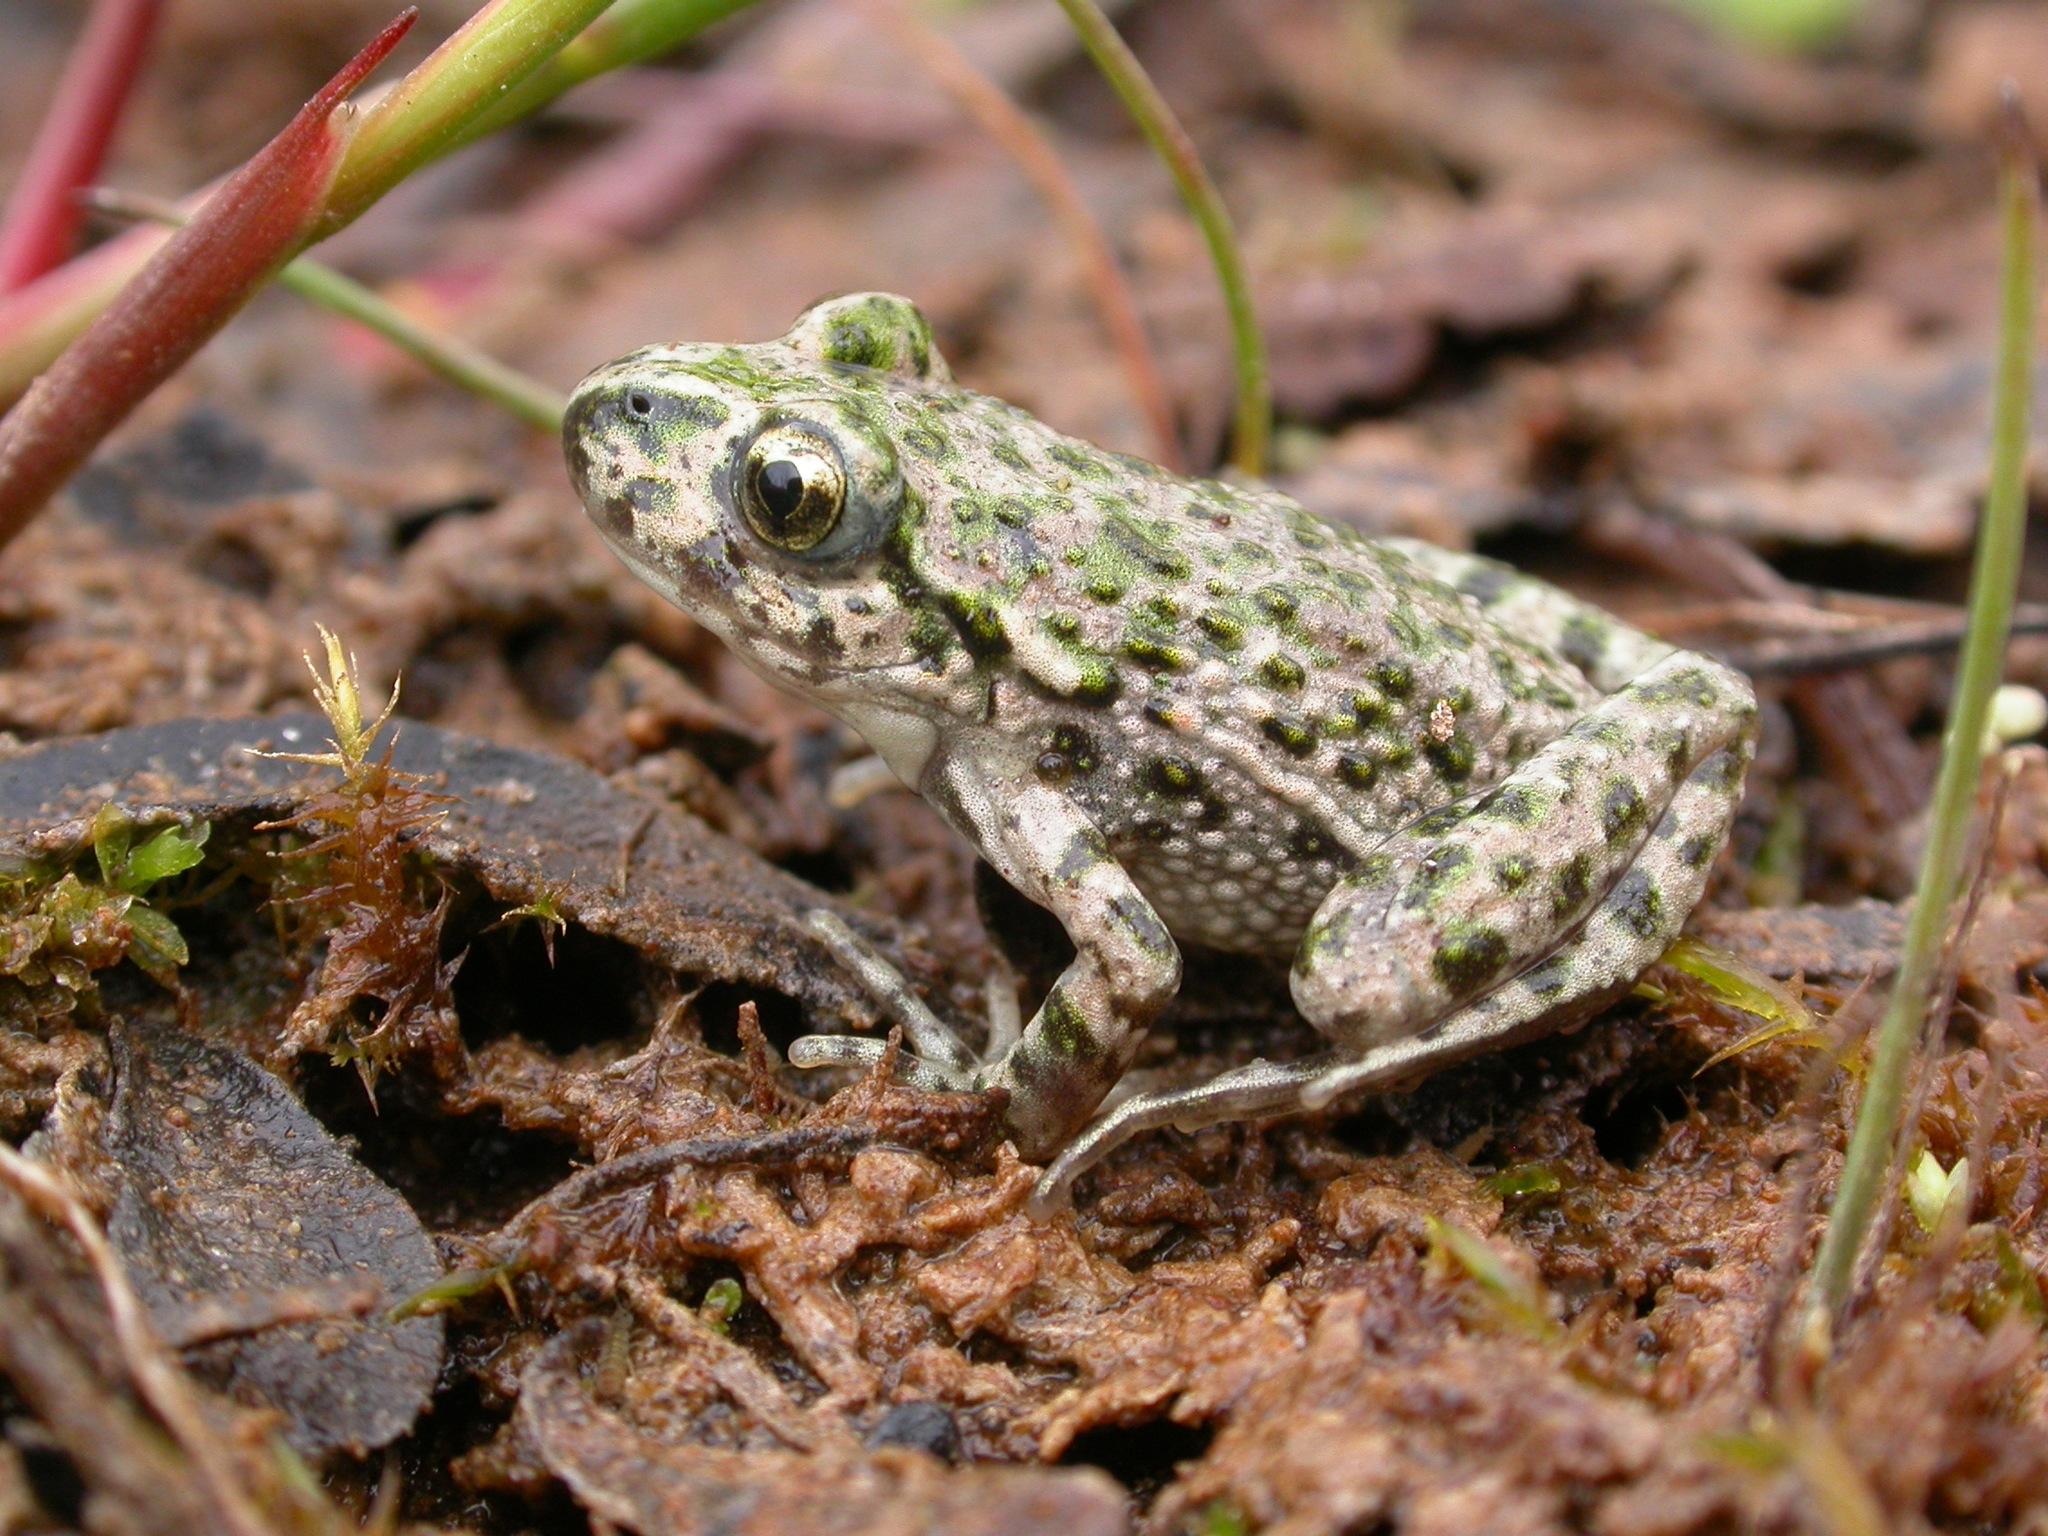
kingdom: Animalia
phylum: Chordata
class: Amphibia
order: Anura
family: Pelodytidae
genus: Pelodytes
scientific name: Pelodytes punctatus
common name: Parsley frog
